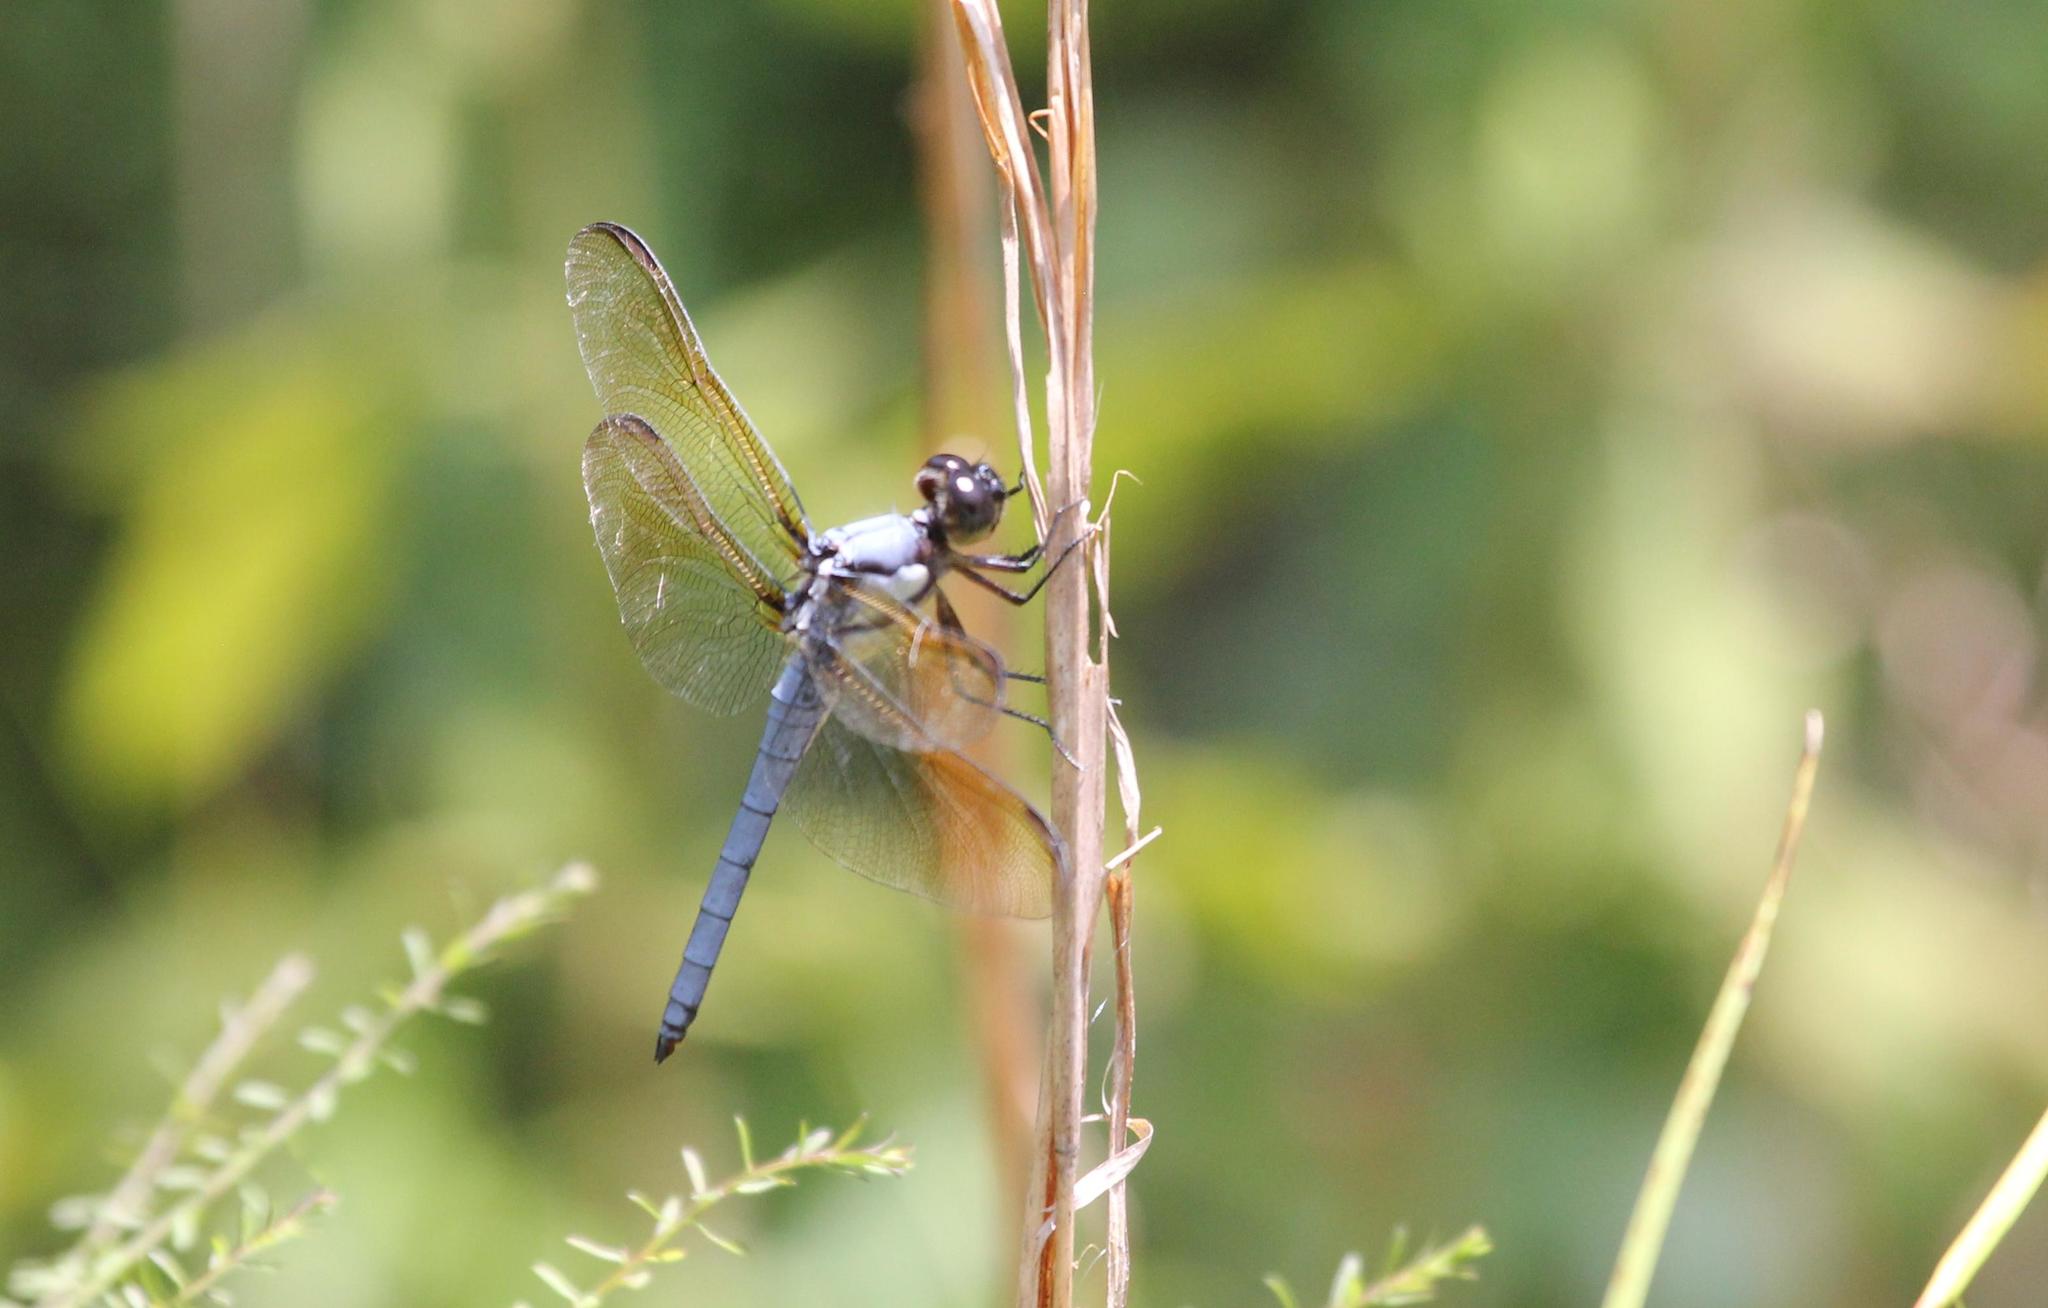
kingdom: Animalia
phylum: Arthropoda
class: Insecta
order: Odonata
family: Libellulidae
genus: Libellula
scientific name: Libellula flavida
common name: Yellow-sided skimmer
